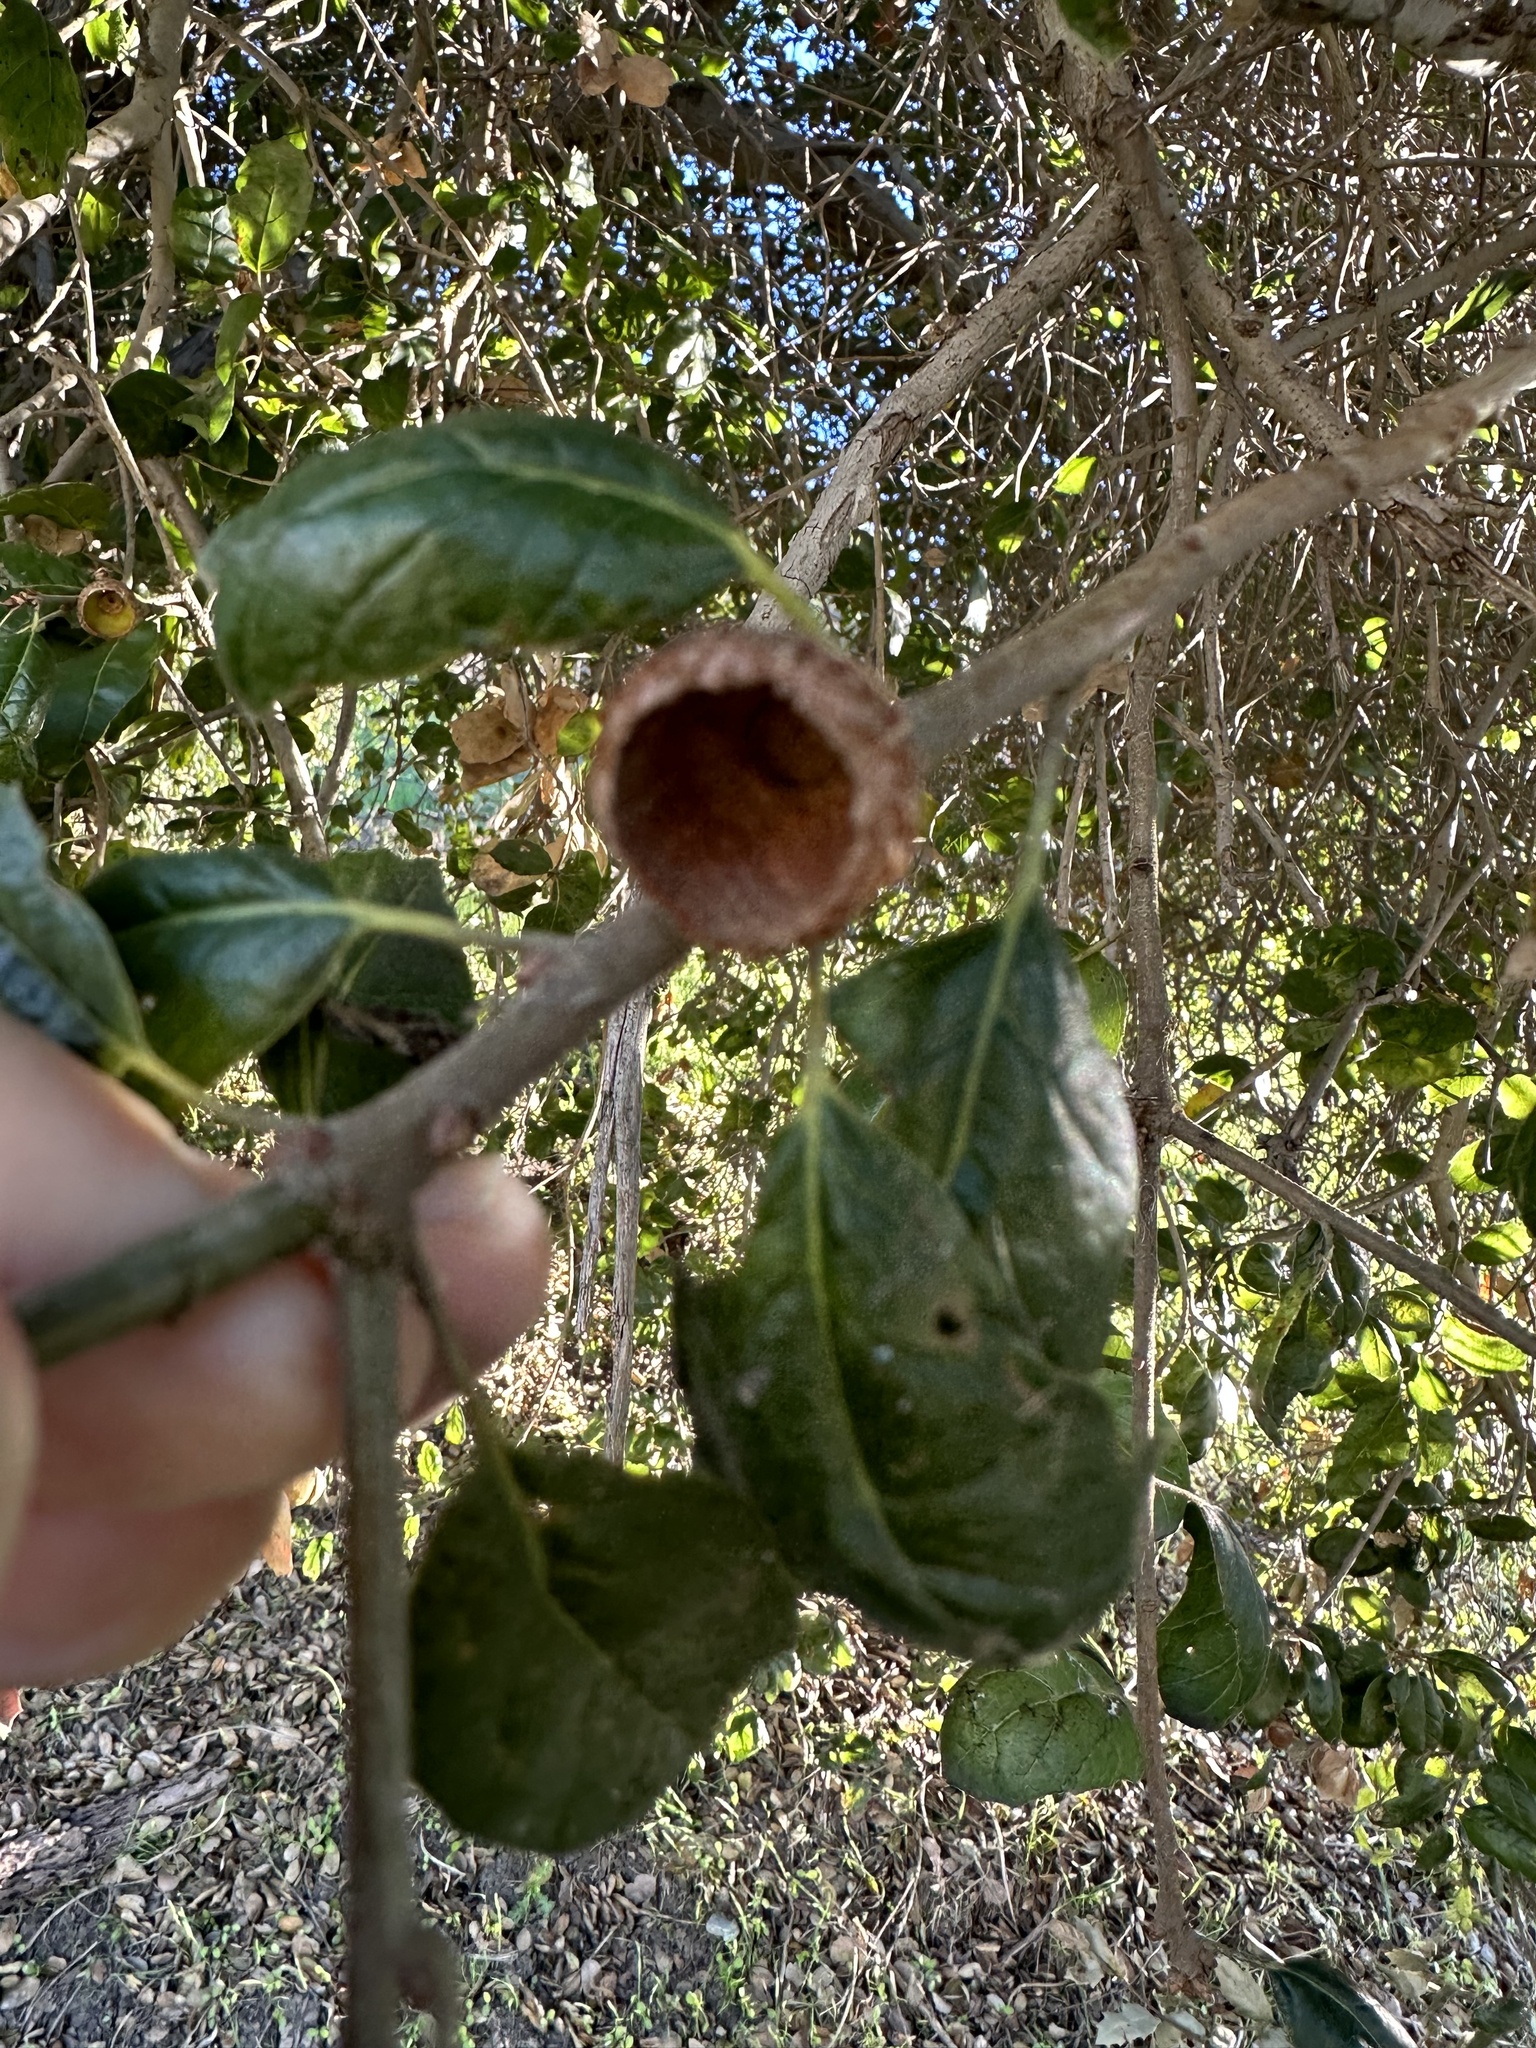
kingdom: Plantae
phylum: Tracheophyta
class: Magnoliopsida
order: Fagales
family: Fagaceae
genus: Quercus
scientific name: Quercus agrifolia
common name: California live oak
